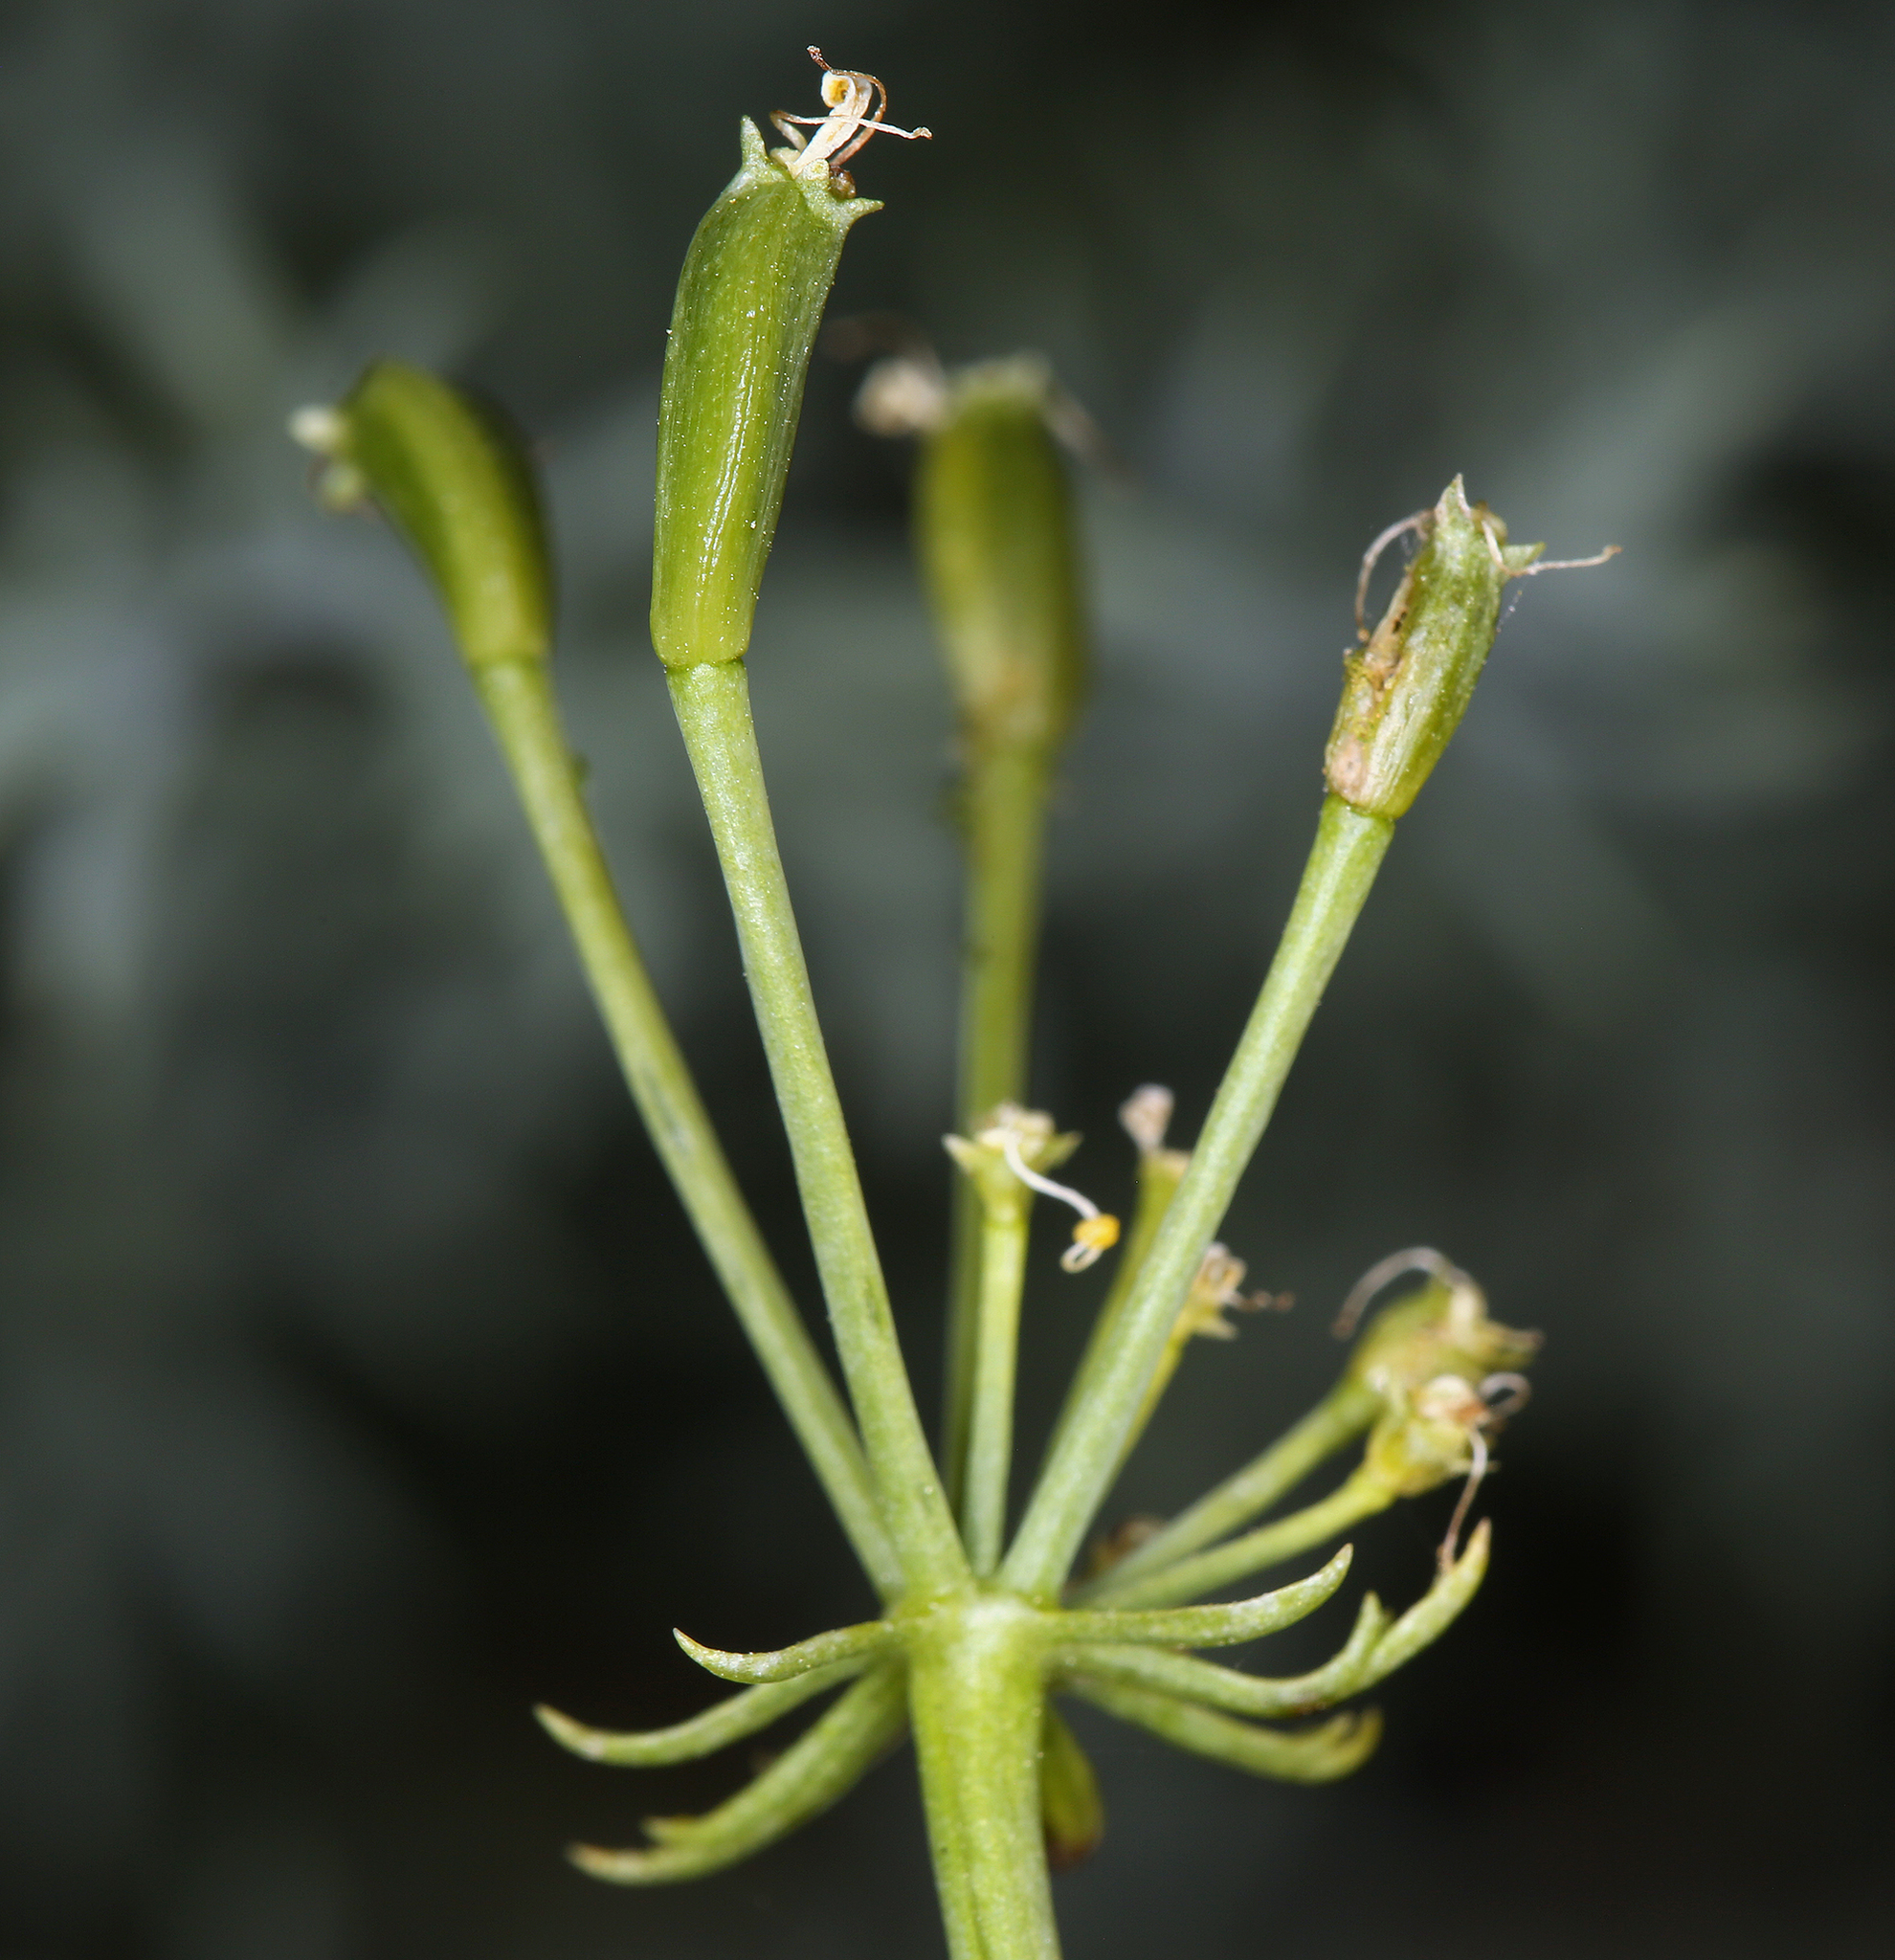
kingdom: Plantae
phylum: Tracheophyta
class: Magnoliopsida
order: Apiales
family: Apiaceae
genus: Lomatium
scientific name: Lomatium parryi
